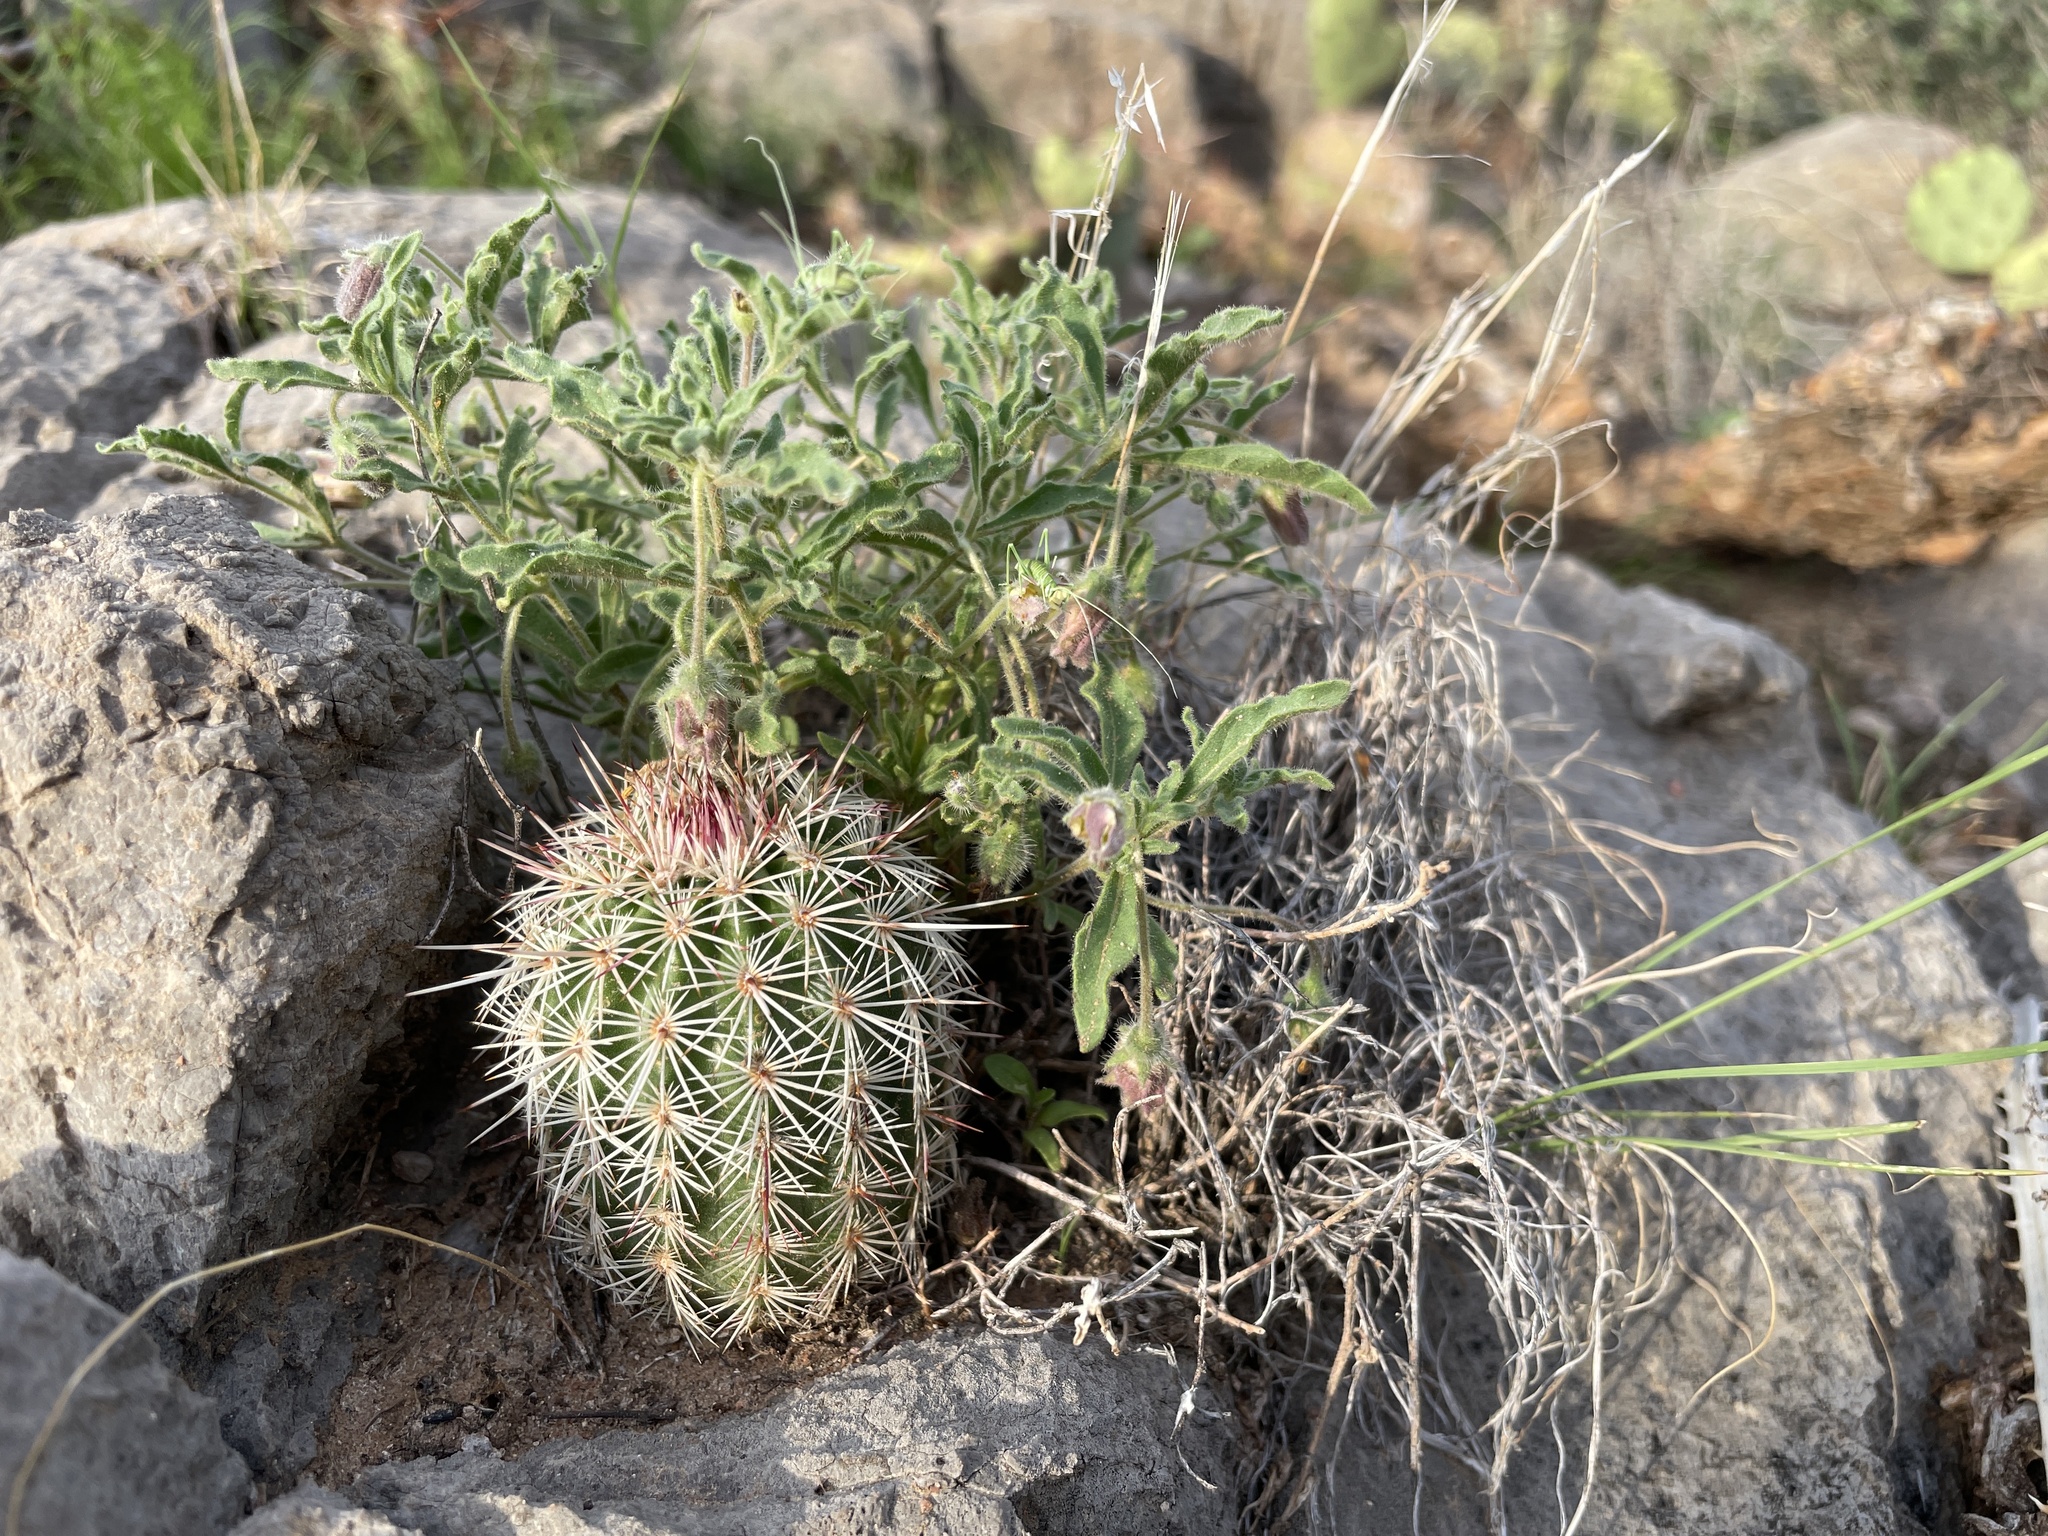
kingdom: Plantae
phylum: Tracheophyta
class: Magnoliopsida
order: Caryophyllales
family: Cactaceae
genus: Echinocereus
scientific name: Echinocereus viridiflorus
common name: Nylon hedgehog cactus
